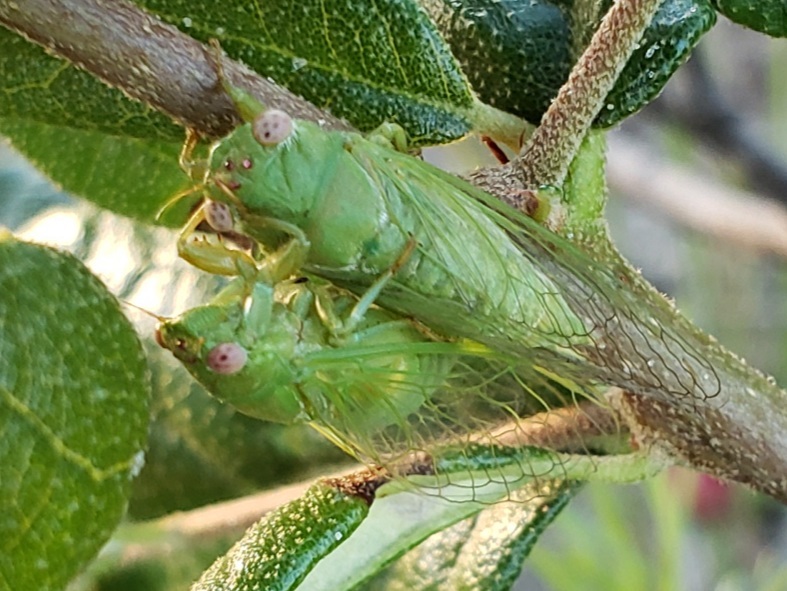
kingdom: Animalia
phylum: Arthropoda
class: Insecta
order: Hemiptera
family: Cicadidae
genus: Cicadettana
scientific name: Cicadettana calliope
